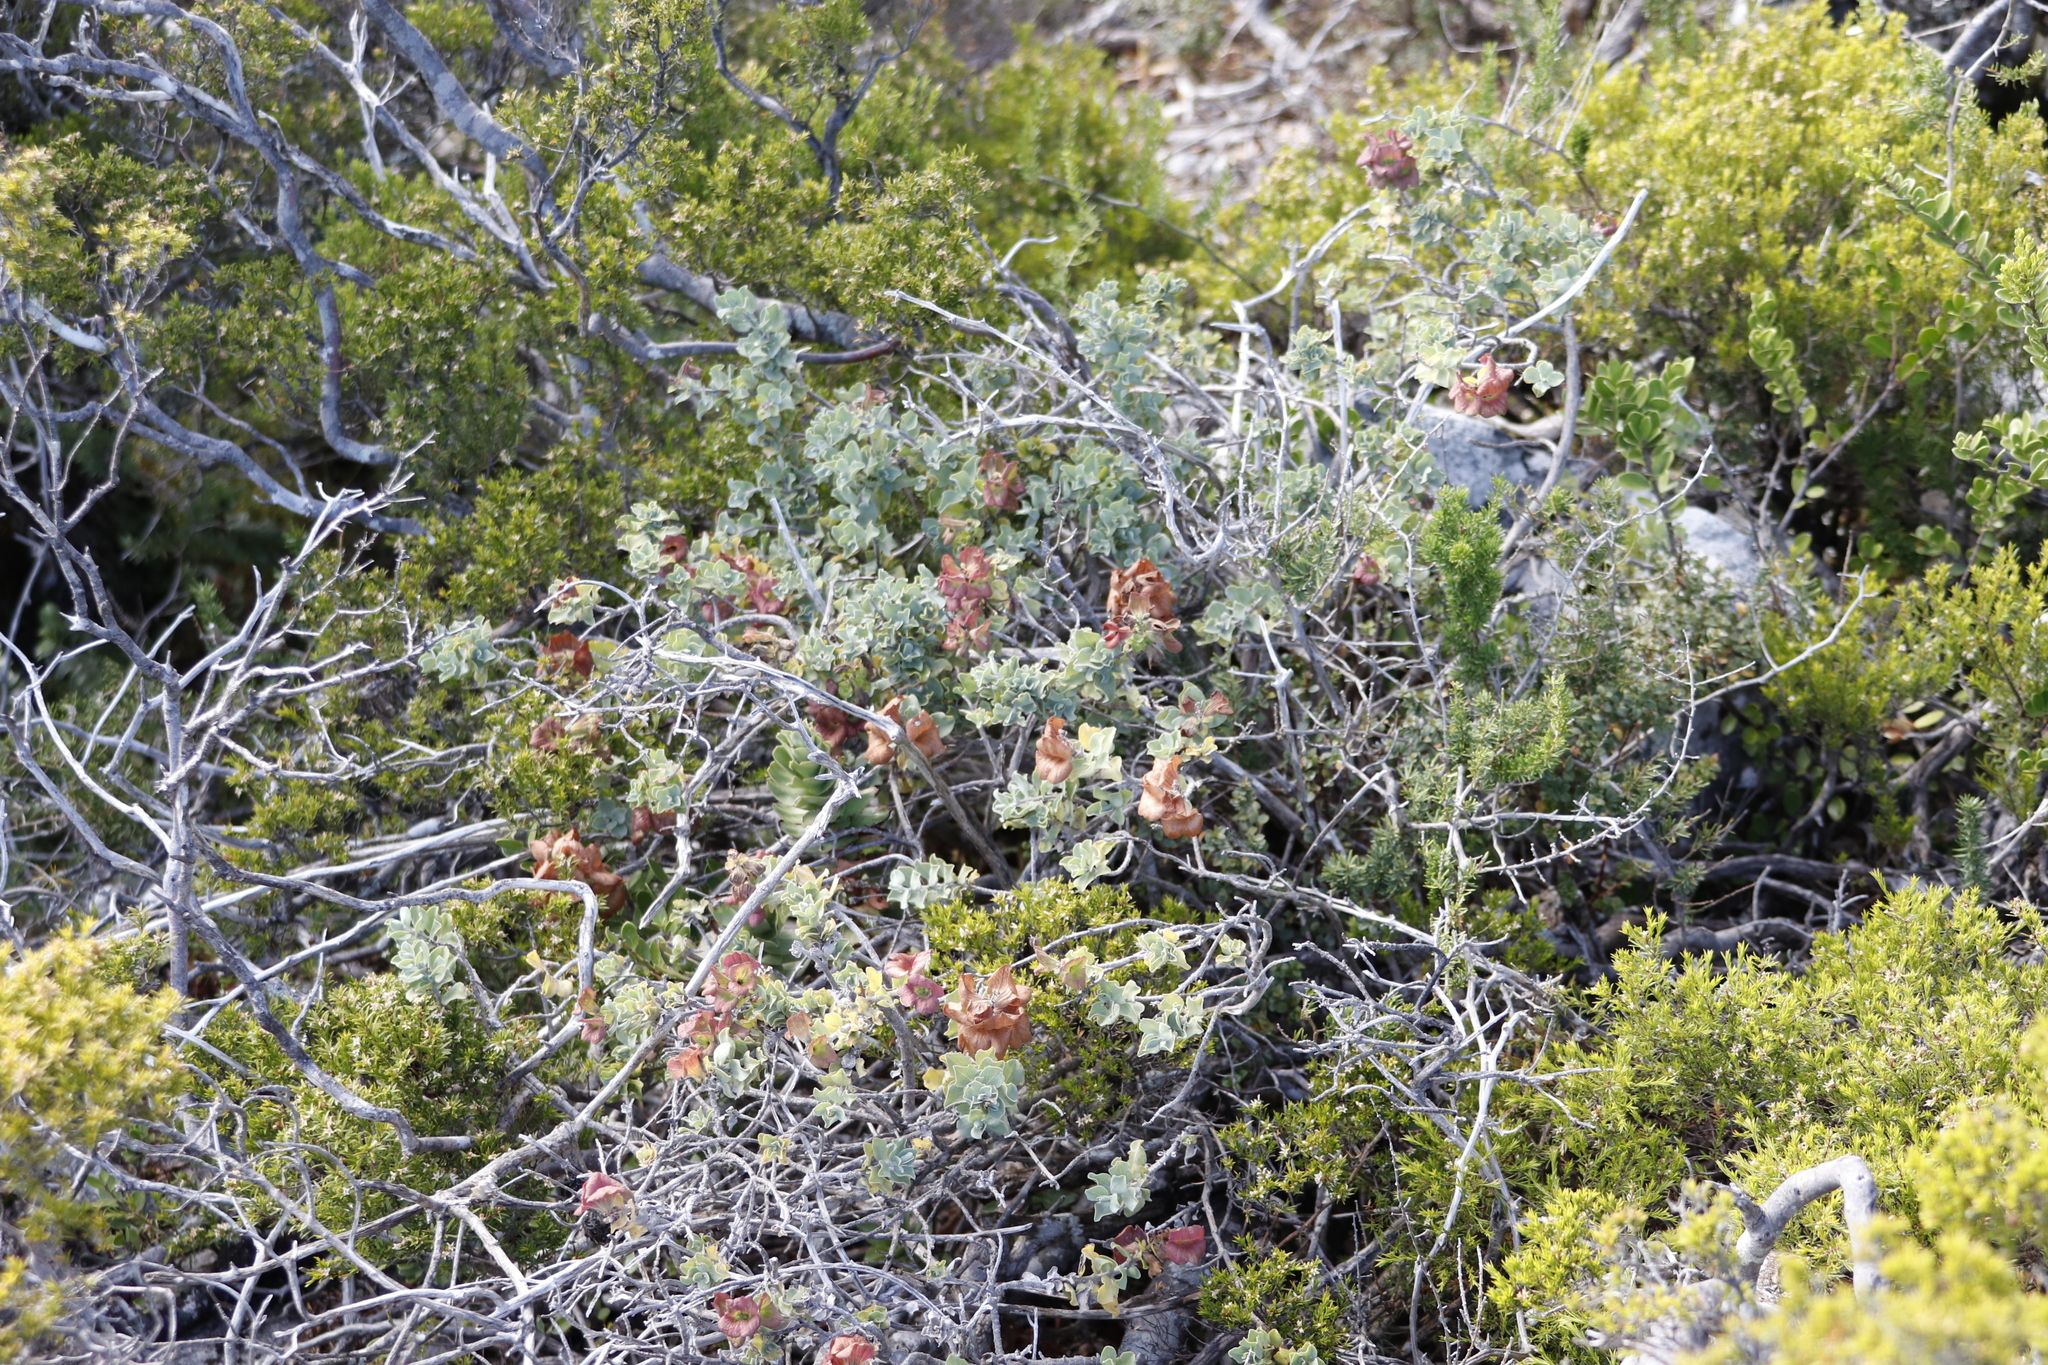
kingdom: Plantae
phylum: Tracheophyta
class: Magnoliopsida
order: Lamiales
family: Lamiaceae
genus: Salvia
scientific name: Salvia aurea
